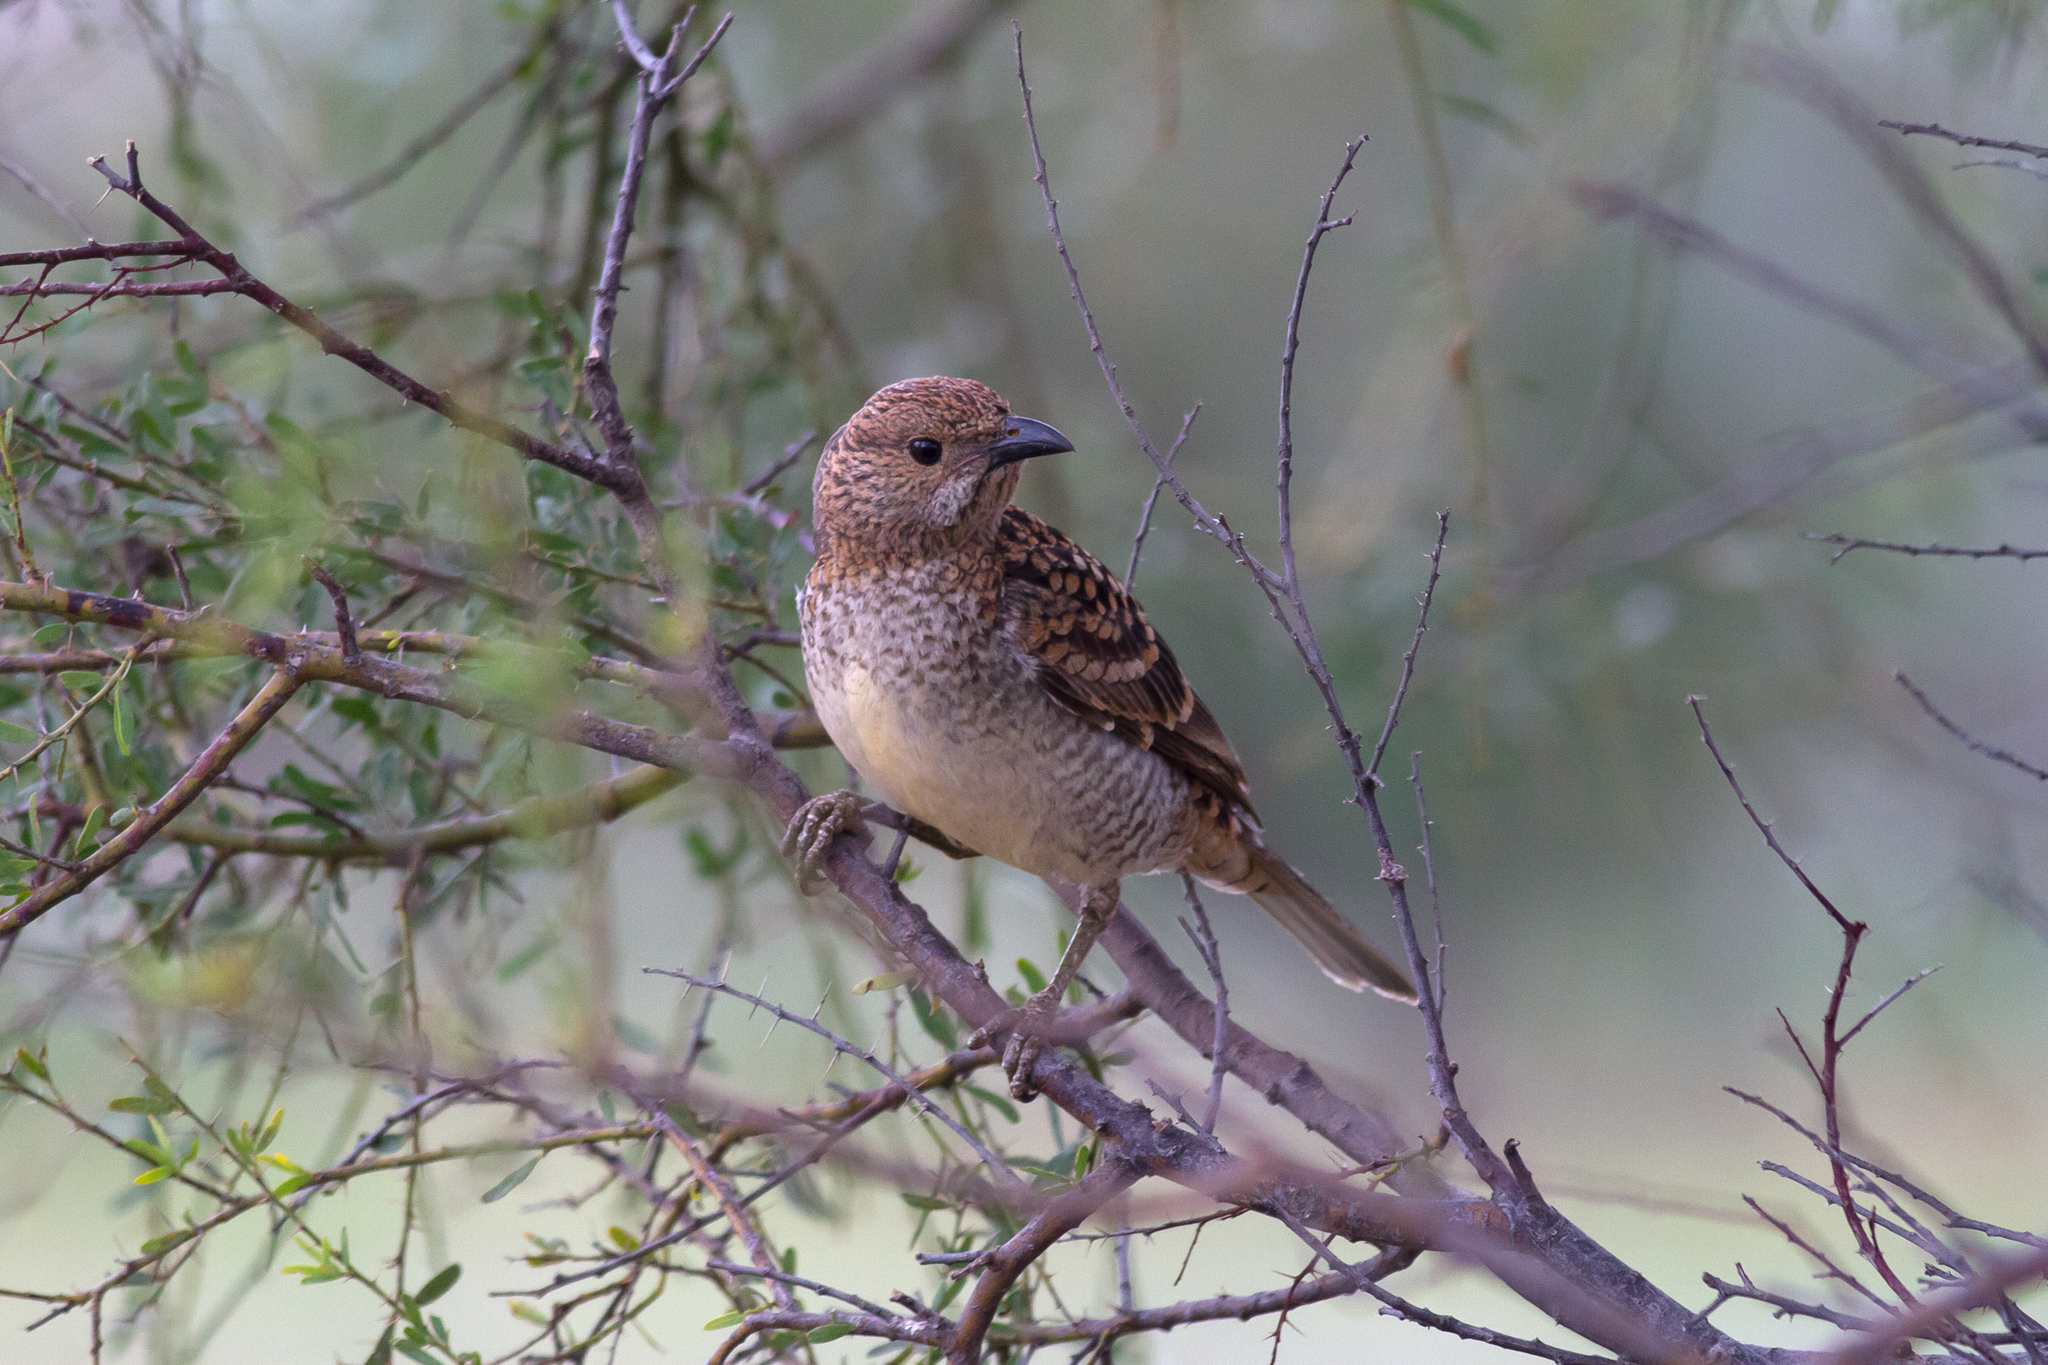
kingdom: Animalia
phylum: Chordata
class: Aves
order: Passeriformes
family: Ptilonorhynchidae
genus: Chlamydera
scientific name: Chlamydera maculata
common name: Spotted bowerbird
